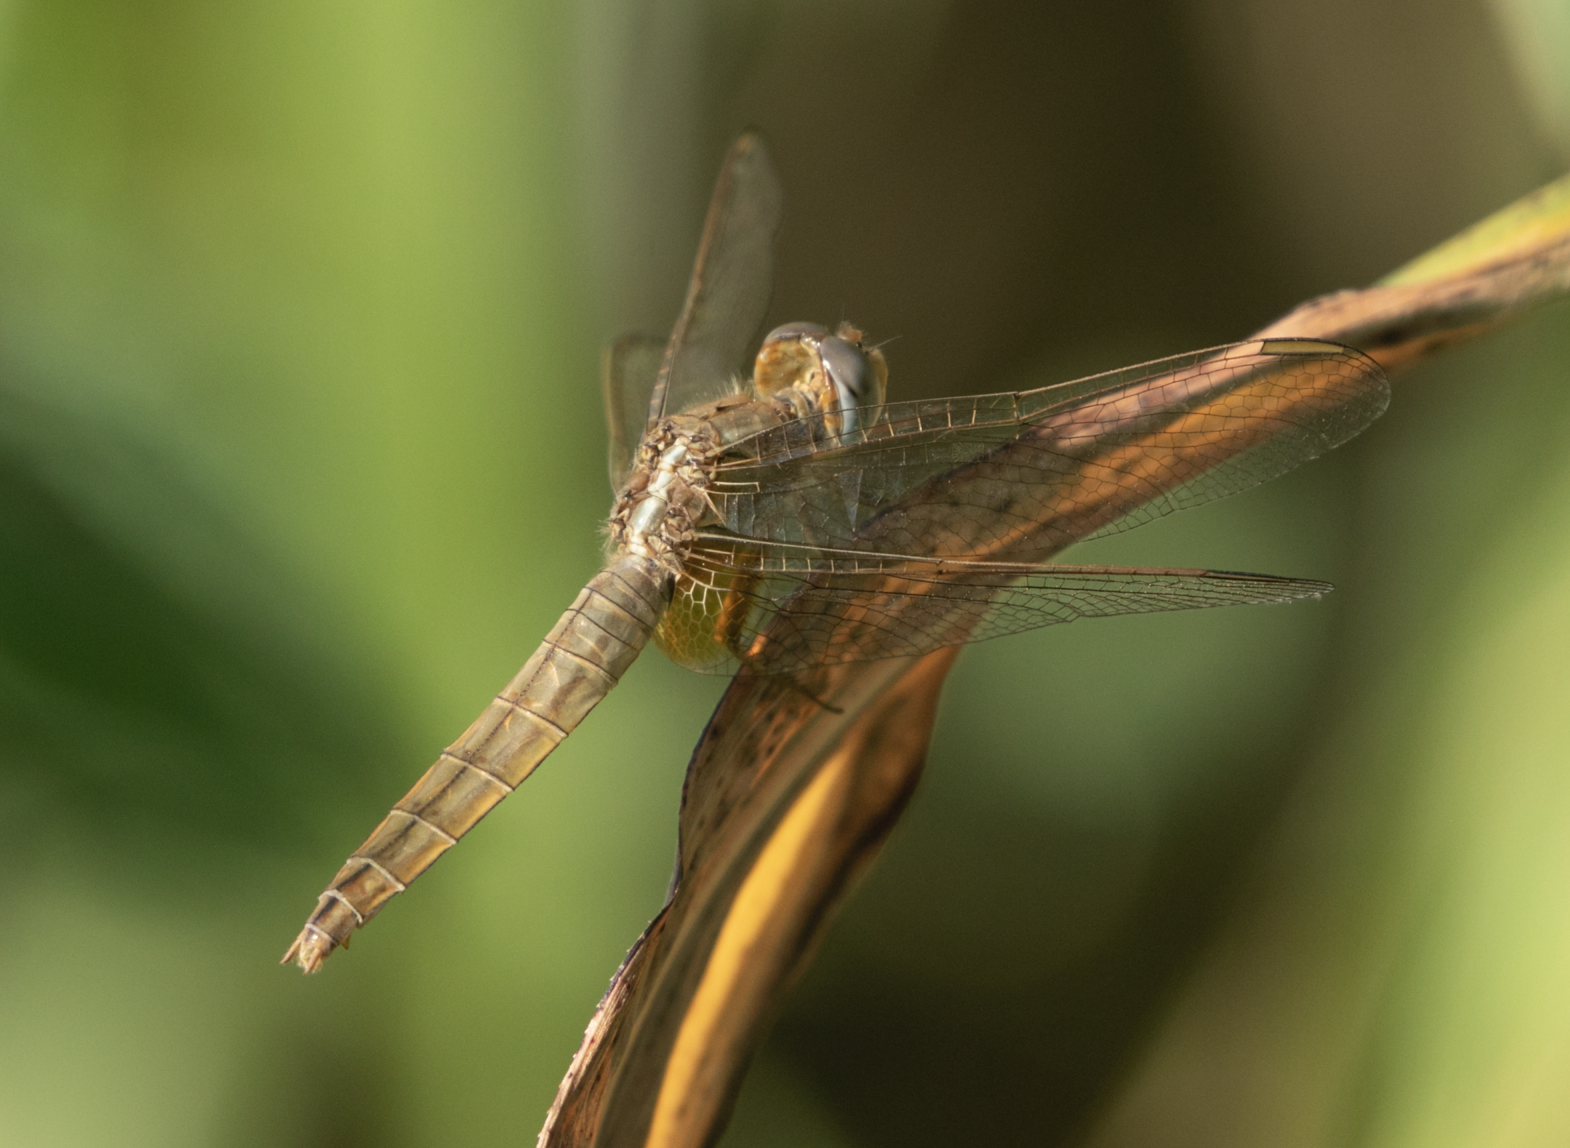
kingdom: Animalia
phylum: Arthropoda
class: Insecta
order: Odonata
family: Libellulidae
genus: Crocothemis
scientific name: Crocothemis erythraea
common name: Scarlet dragonfly
